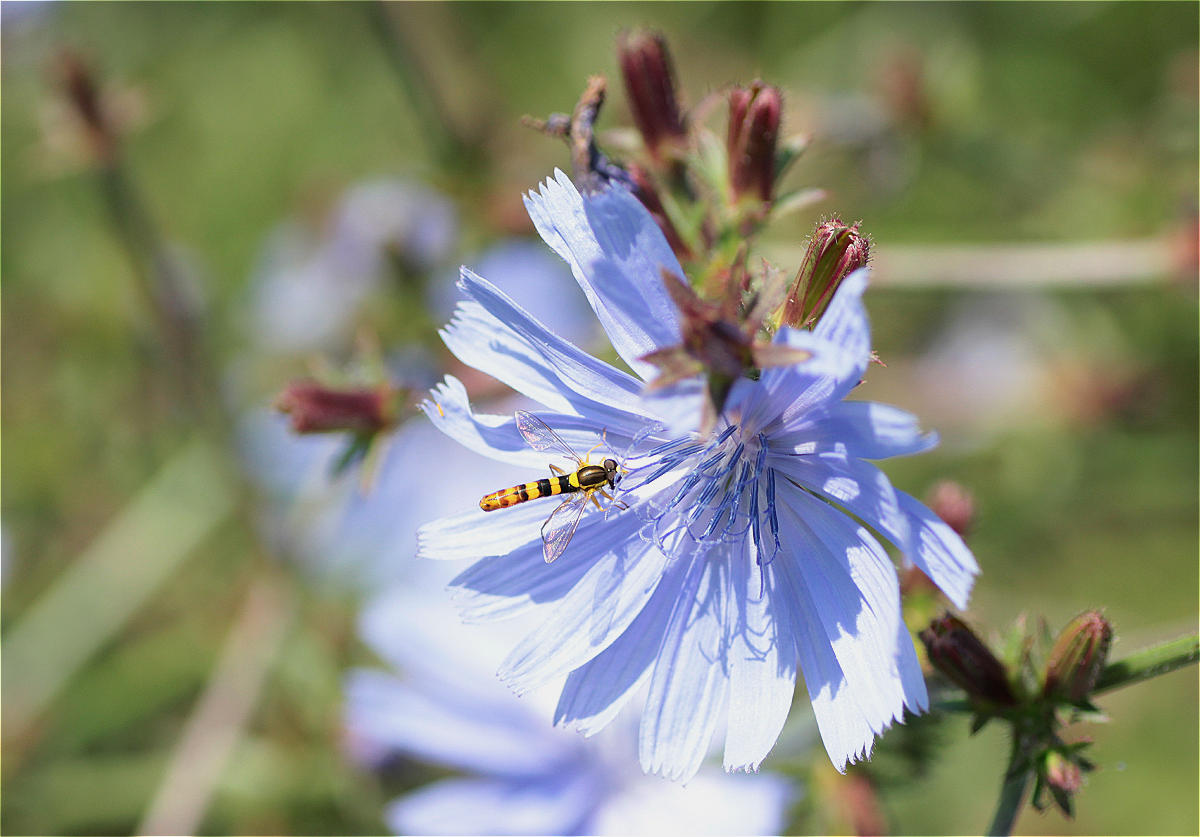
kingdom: Plantae
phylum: Tracheophyta
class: Magnoliopsida
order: Asterales
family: Asteraceae
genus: Cichorium
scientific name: Cichorium intybus
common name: Chicory
